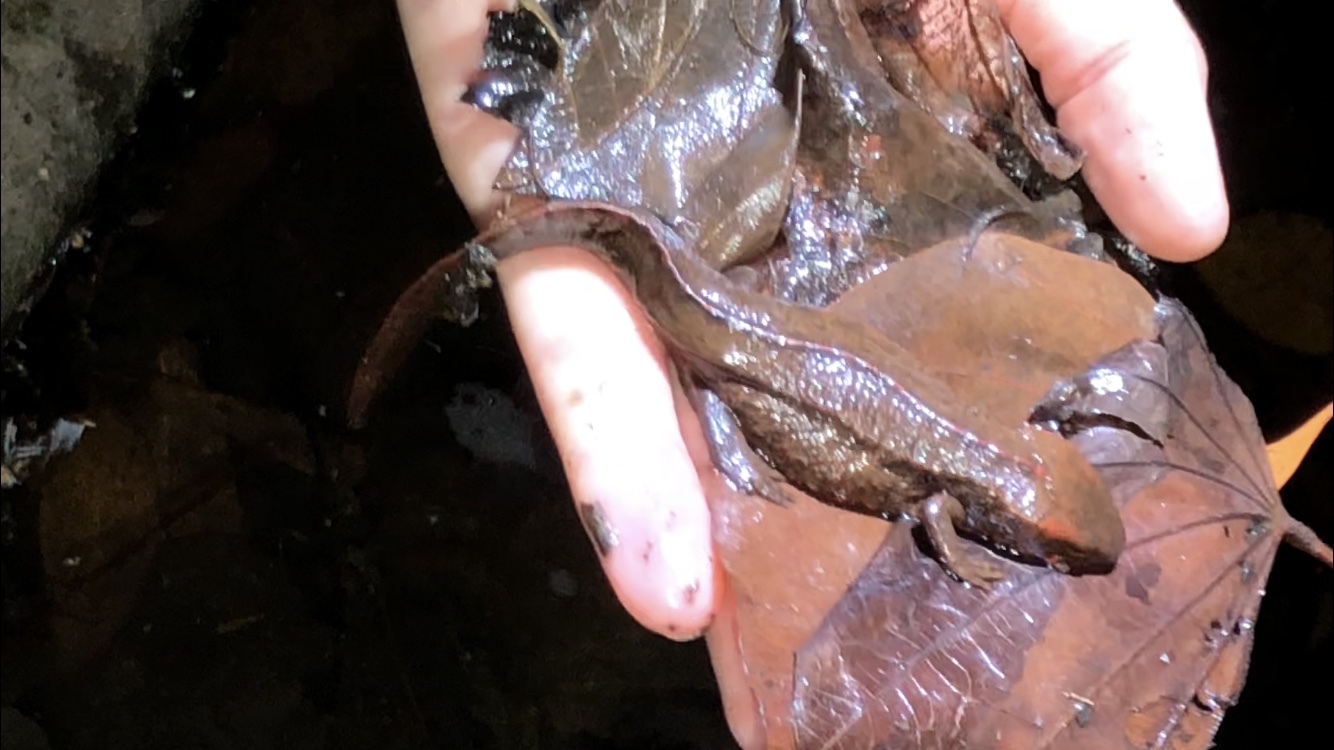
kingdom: Animalia
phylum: Chordata
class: Amphibia
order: Caudata
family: Salamandridae
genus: Paramesotriton
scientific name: Paramesotriton hongkongensis
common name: Hong kong warty newt
